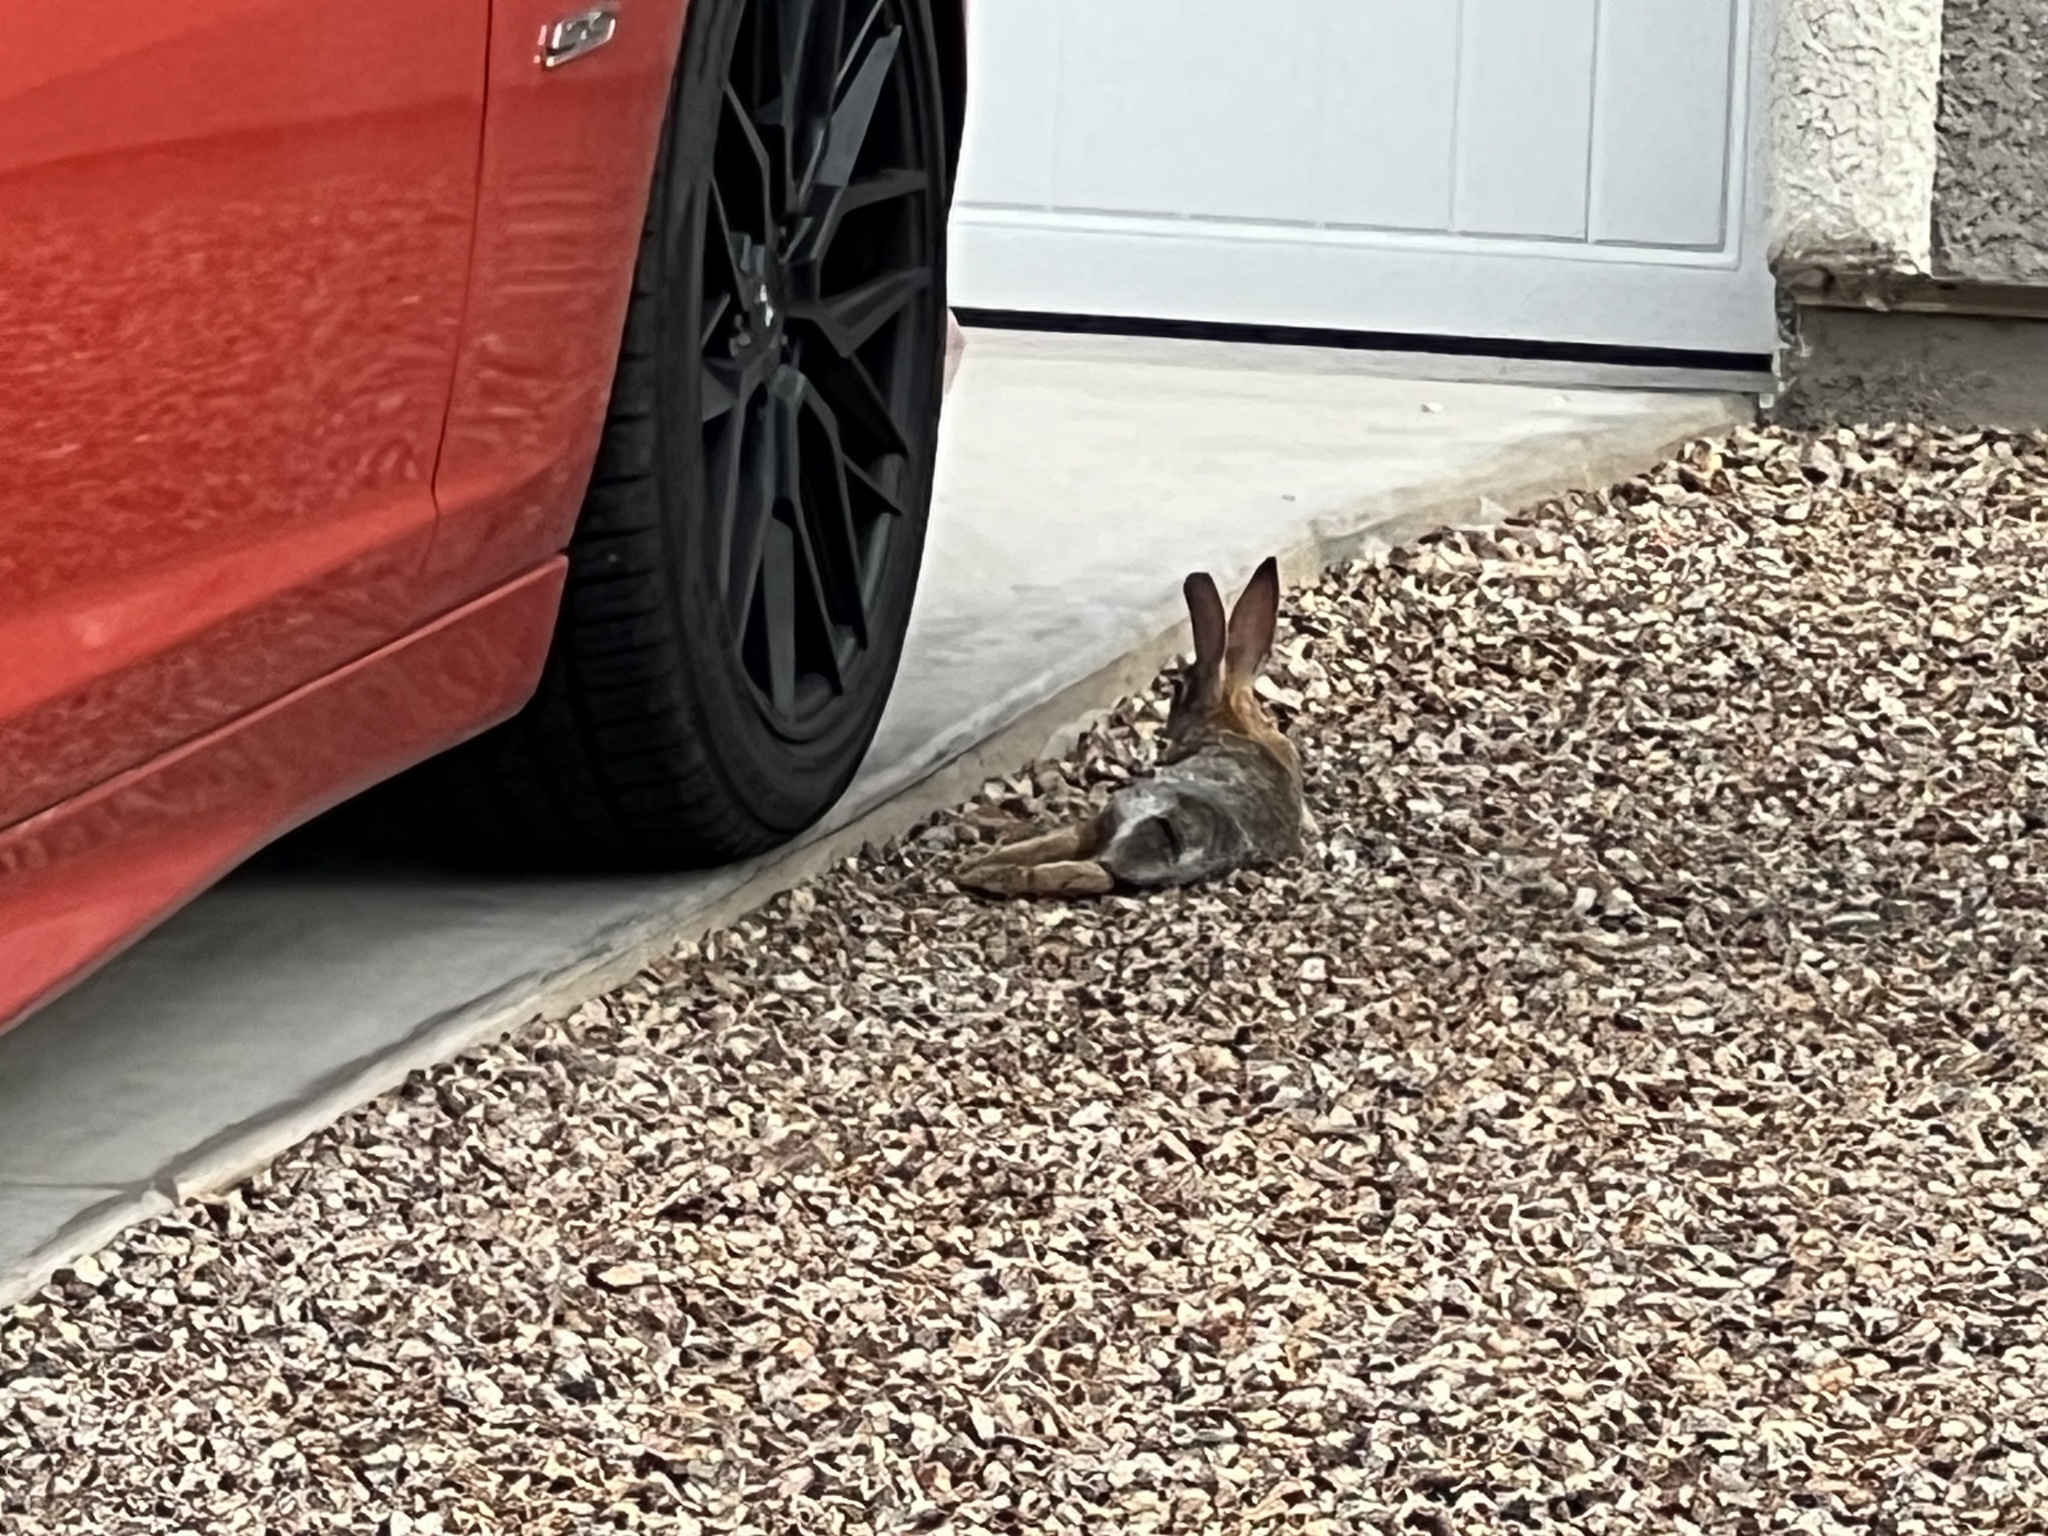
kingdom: Animalia
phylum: Chordata
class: Mammalia
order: Lagomorpha
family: Leporidae
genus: Sylvilagus
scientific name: Sylvilagus audubonii
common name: Desert cottontail
